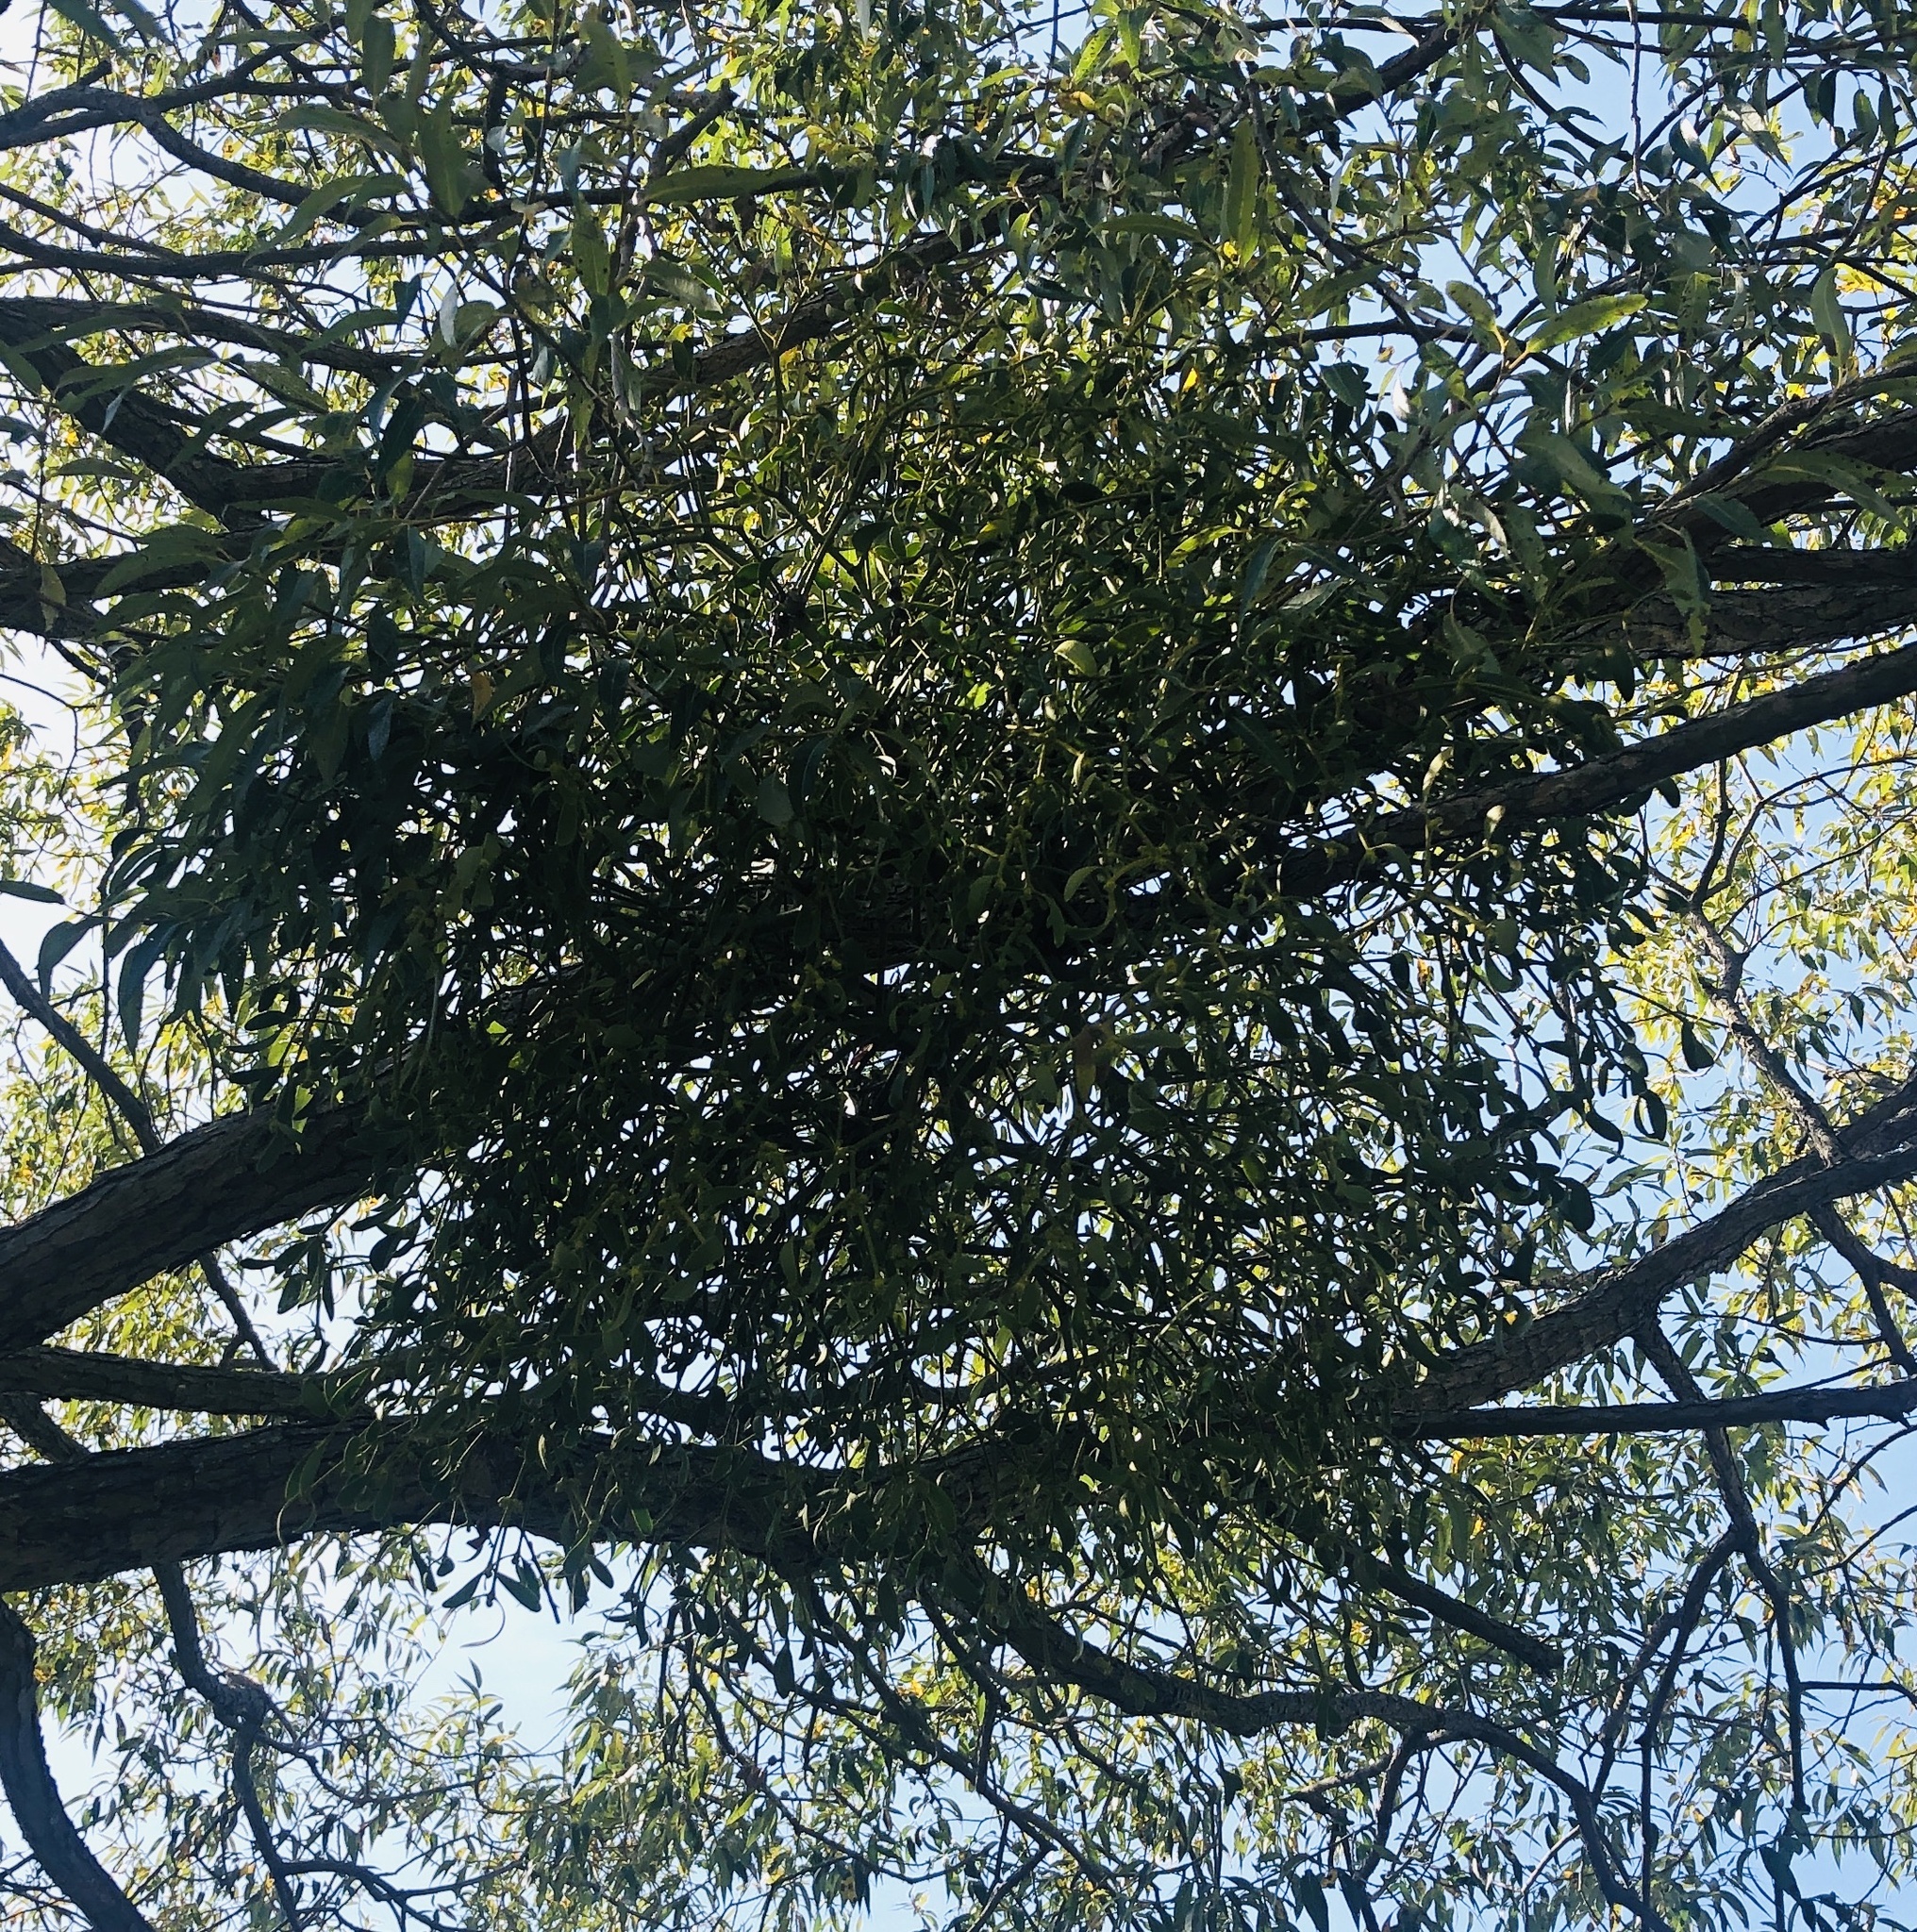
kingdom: Plantae
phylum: Tracheophyta
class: Magnoliopsida
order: Santalales
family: Viscaceae
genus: Viscum
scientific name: Viscum album
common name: Mistletoe
